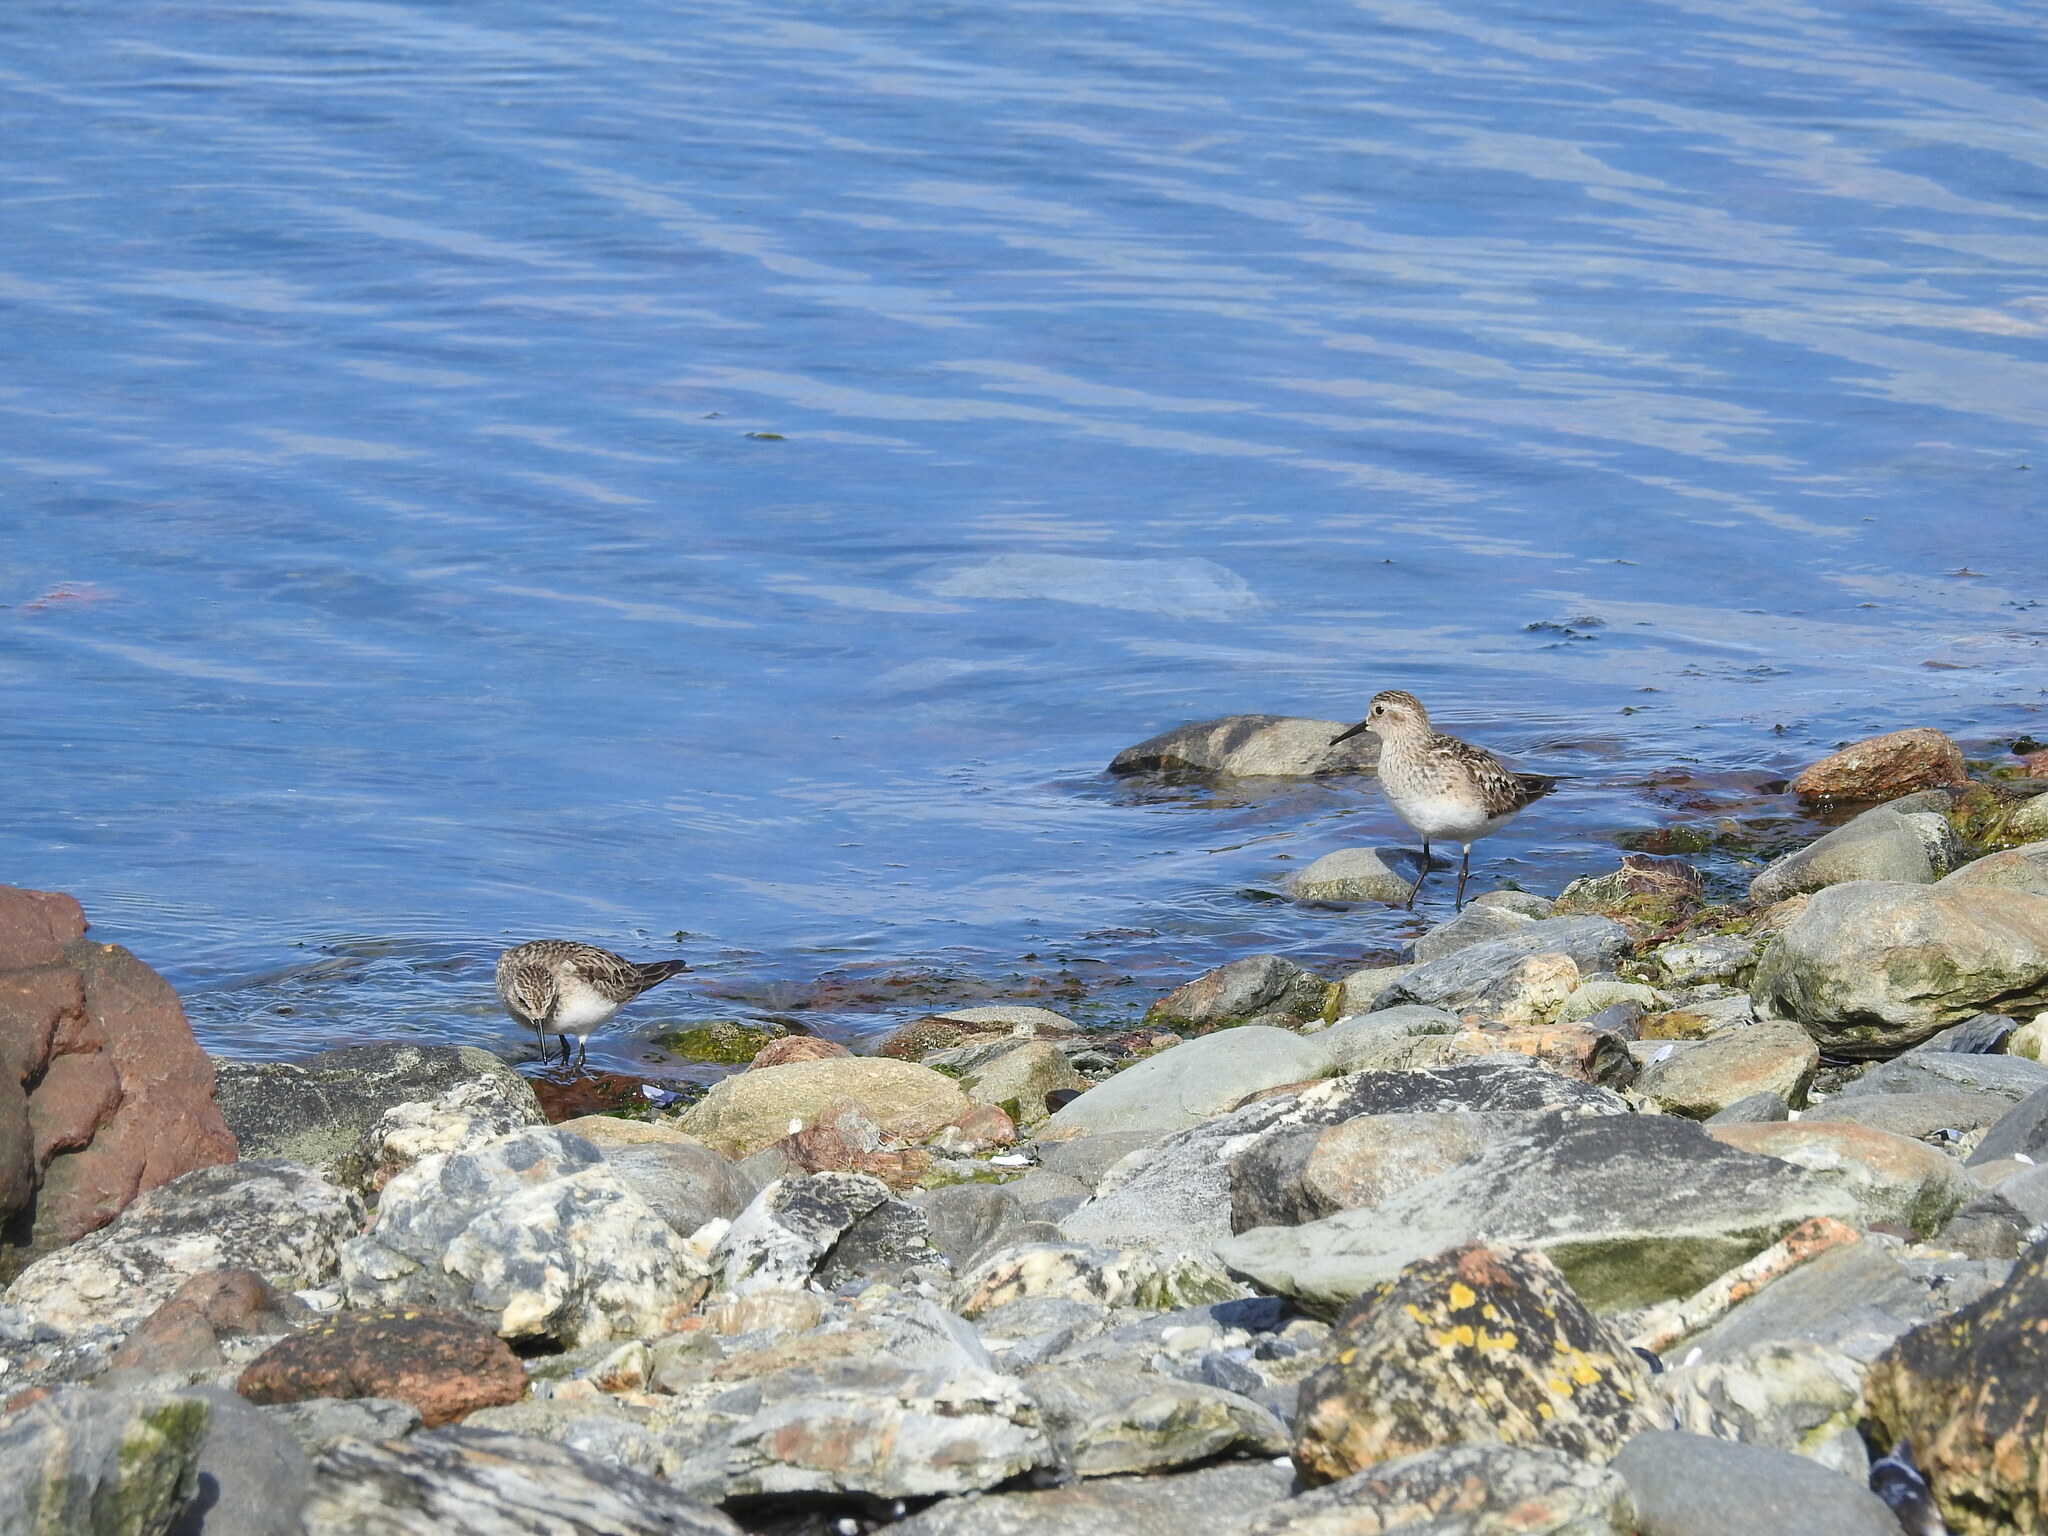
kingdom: Animalia
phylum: Chordata
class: Aves
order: Charadriiformes
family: Scolopacidae
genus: Calidris
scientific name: Calidris bairdii
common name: Baird's sandpiper
